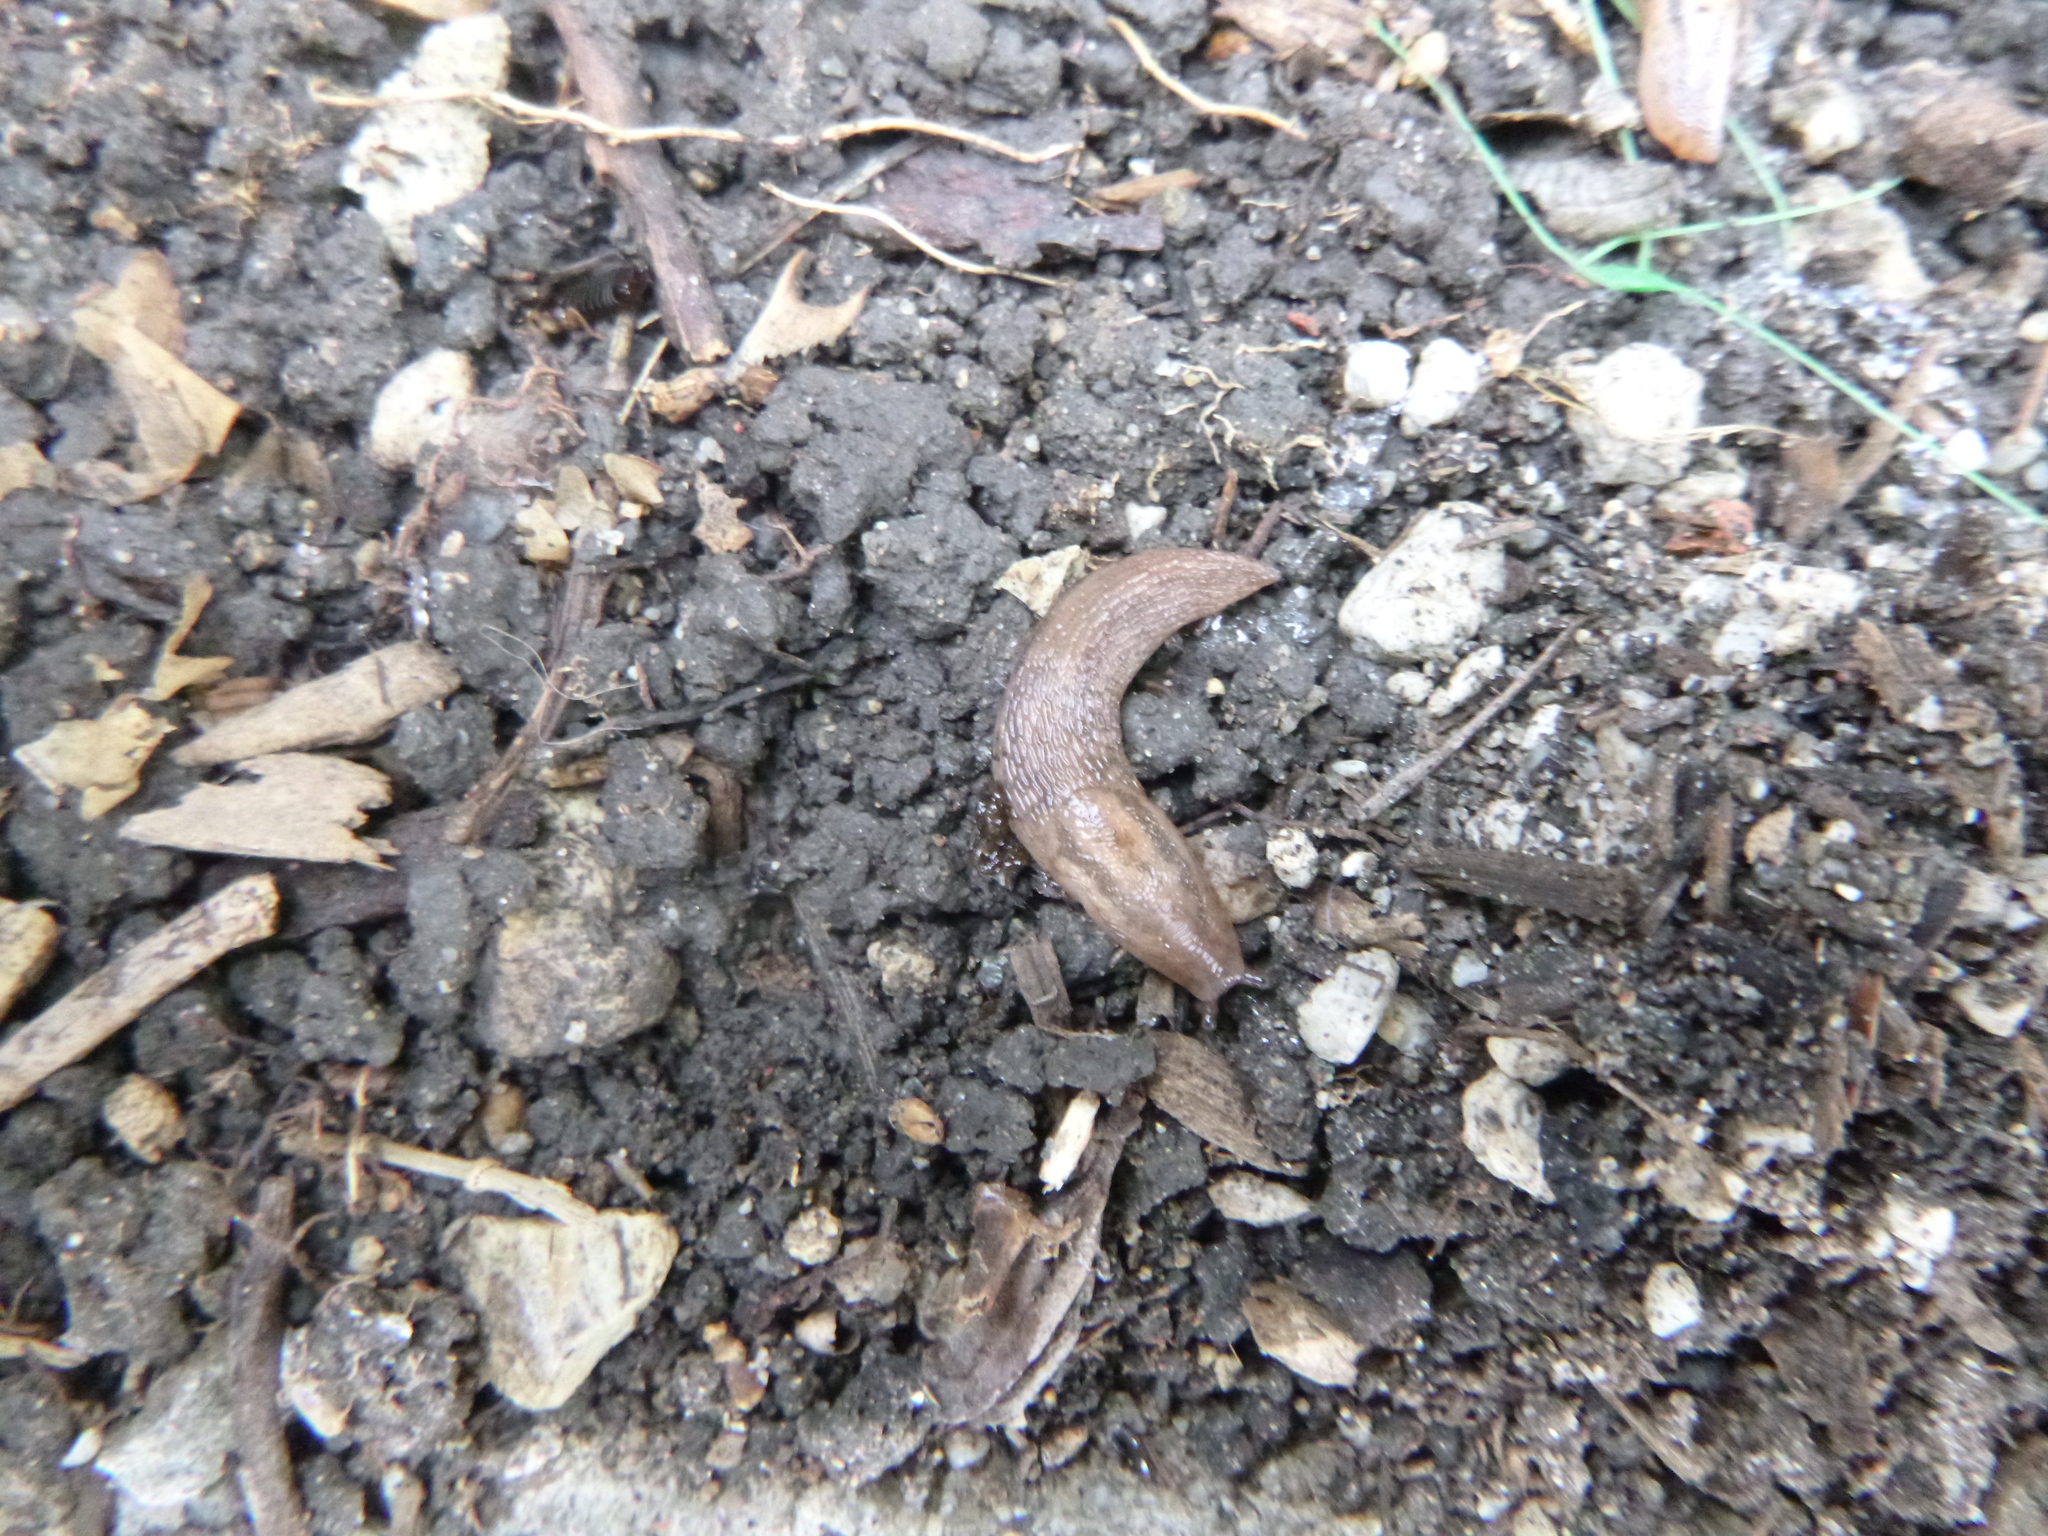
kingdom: Animalia
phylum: Mollusca
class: Gastropoda
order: Stylommatophora
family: Limacidae
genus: Ambigolimax
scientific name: Ambigolimax
